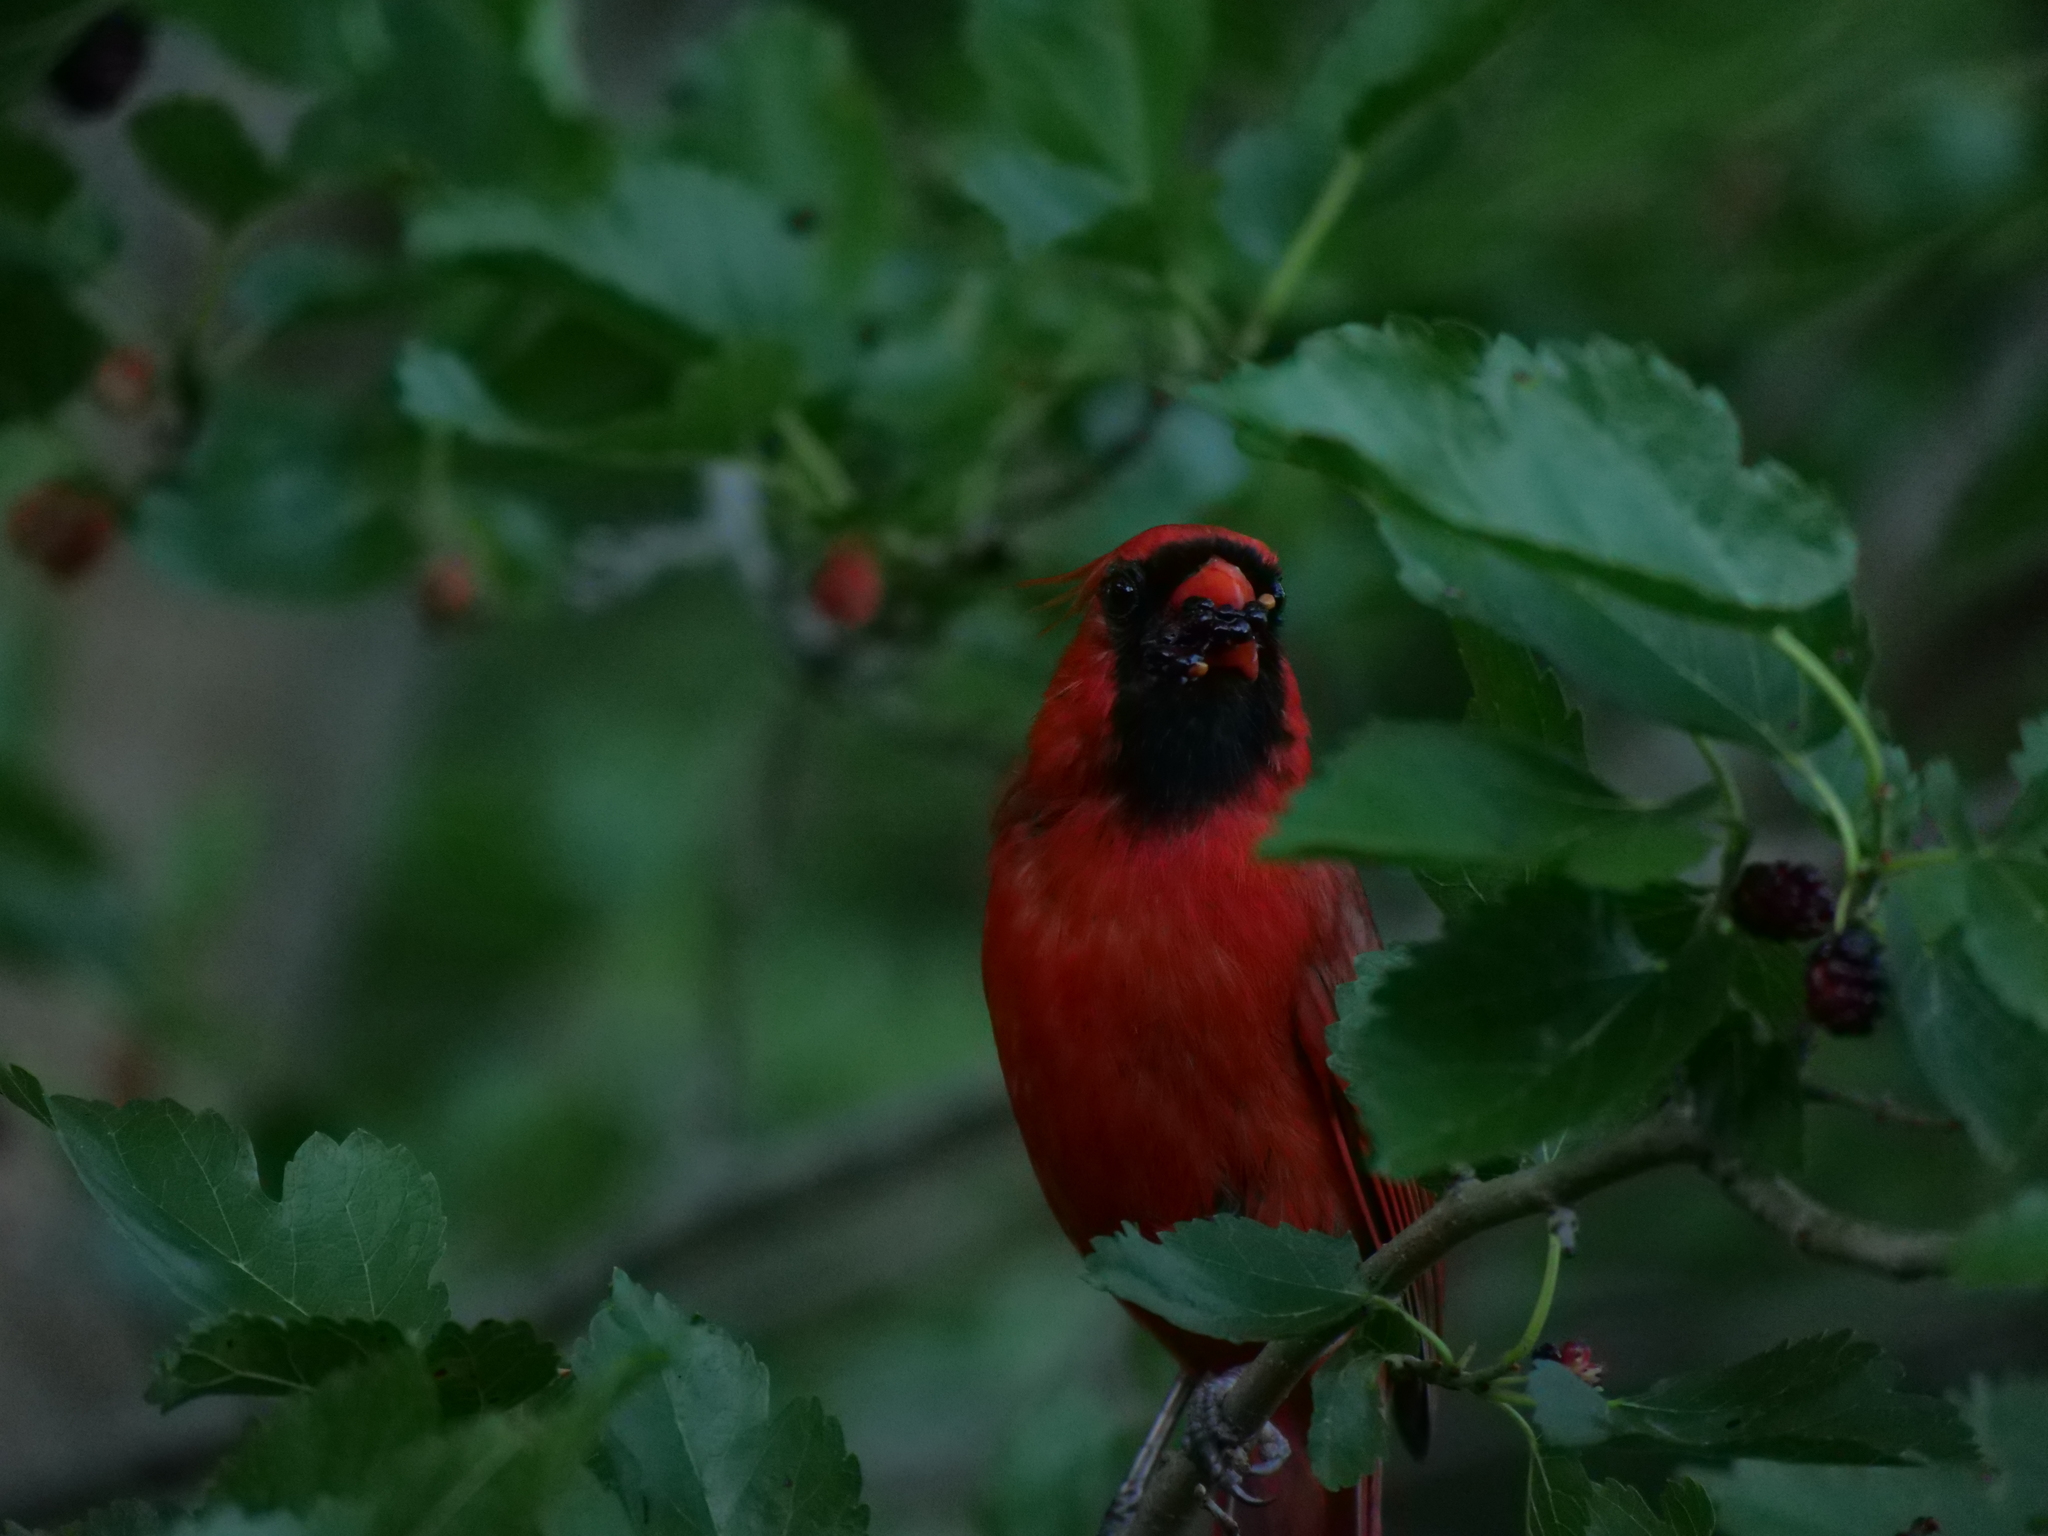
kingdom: Animalia
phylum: Chordata
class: Aves
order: Passeriformes
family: Cardinalidae
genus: Cardinalis
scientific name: Cardinalis cardinalis
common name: Northern cardinal
